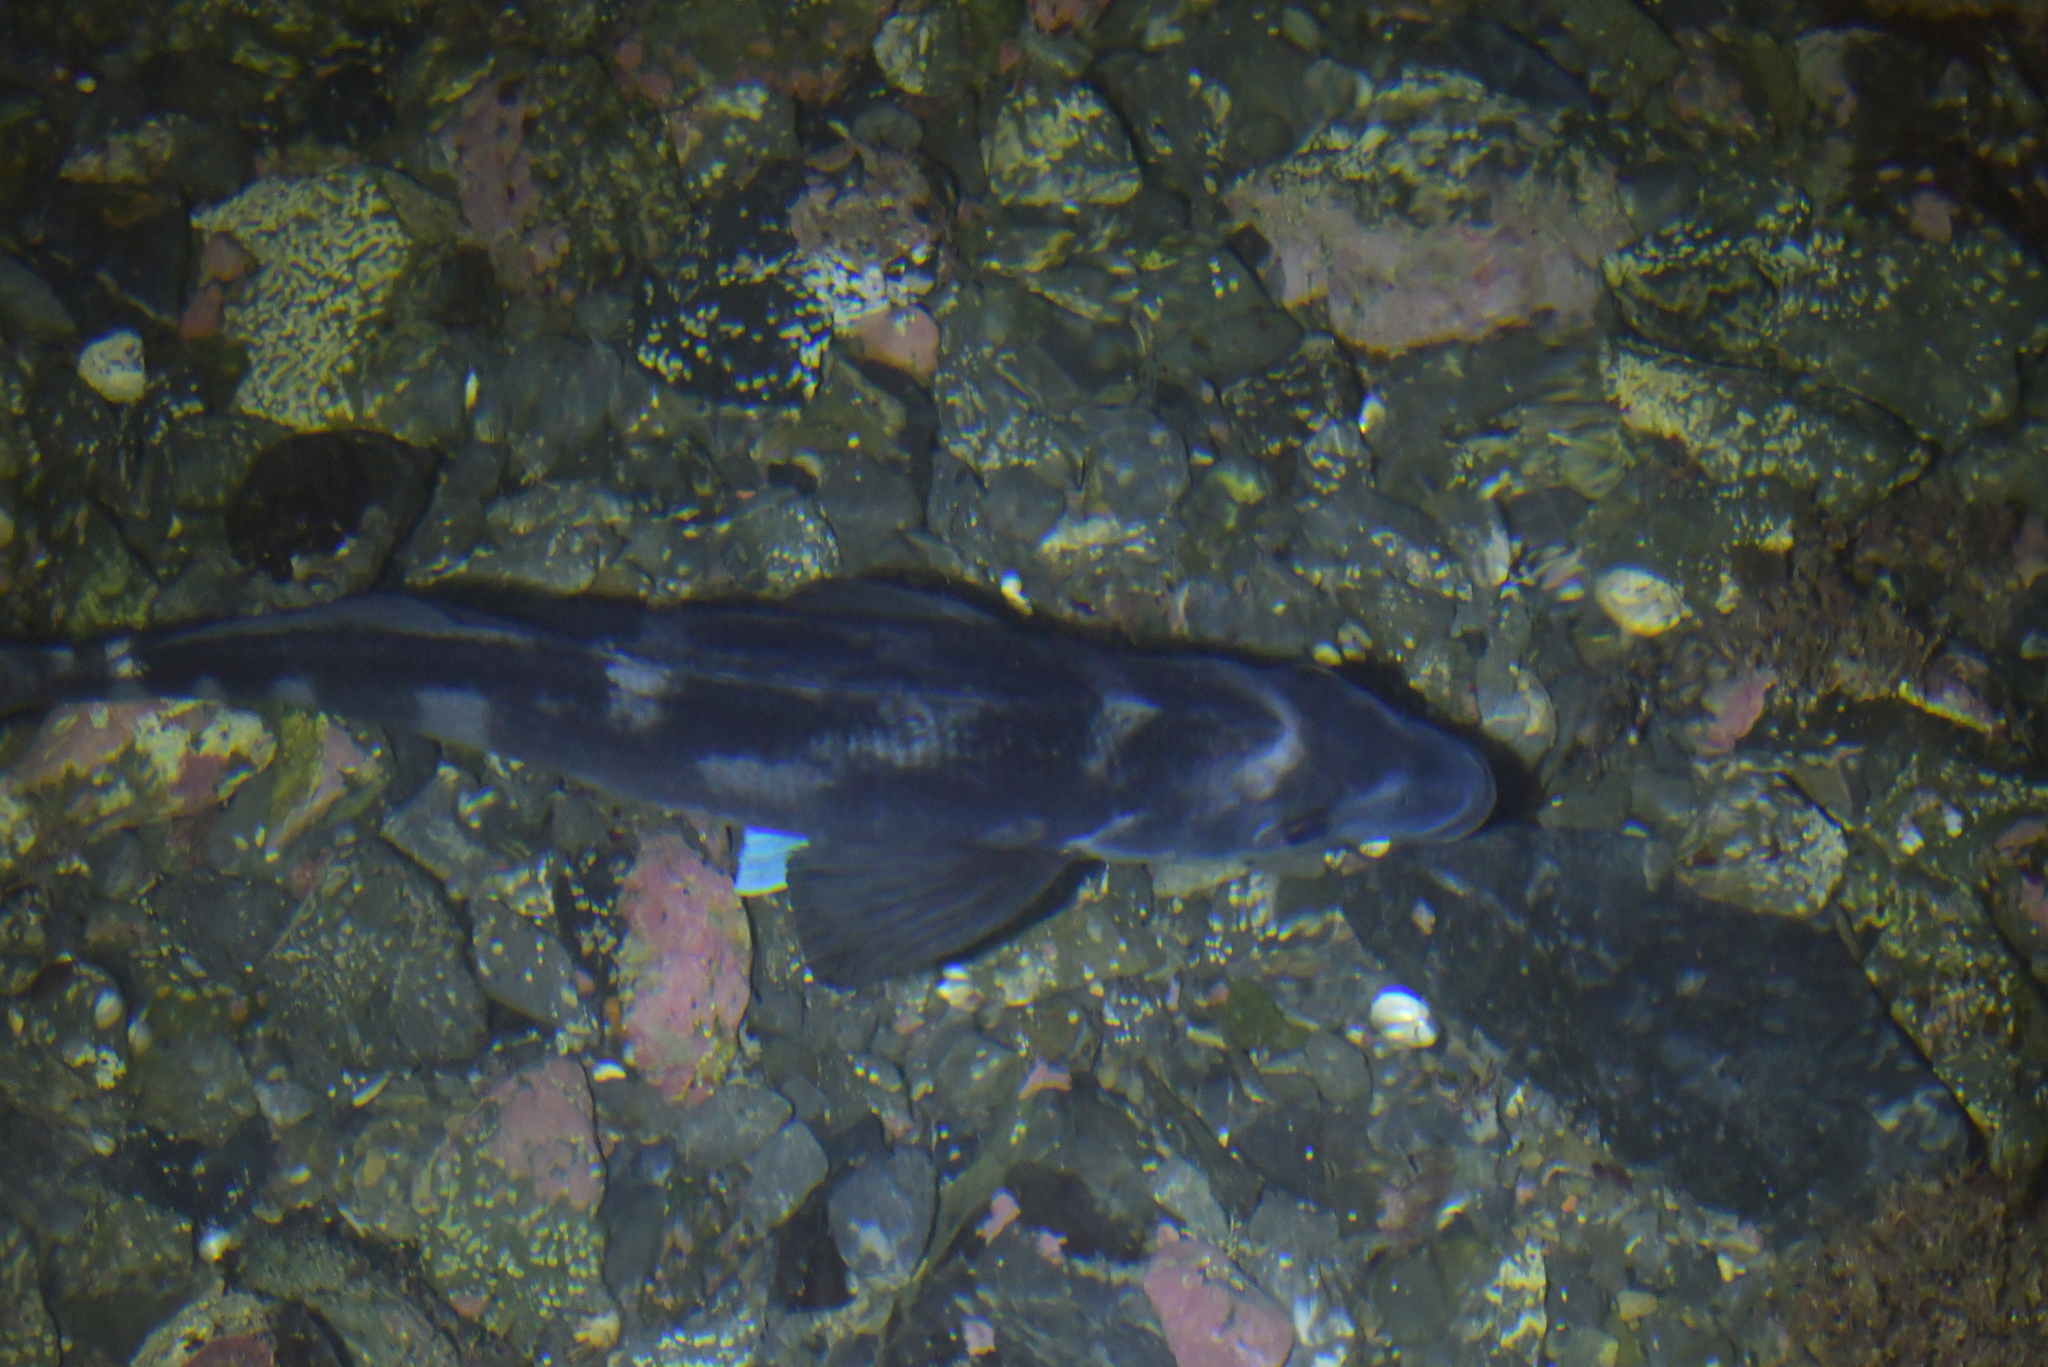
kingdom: Animalia
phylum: Chordata
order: Perciformes
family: Latridae
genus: Latridopsis
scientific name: Latridopsis ciliaris
